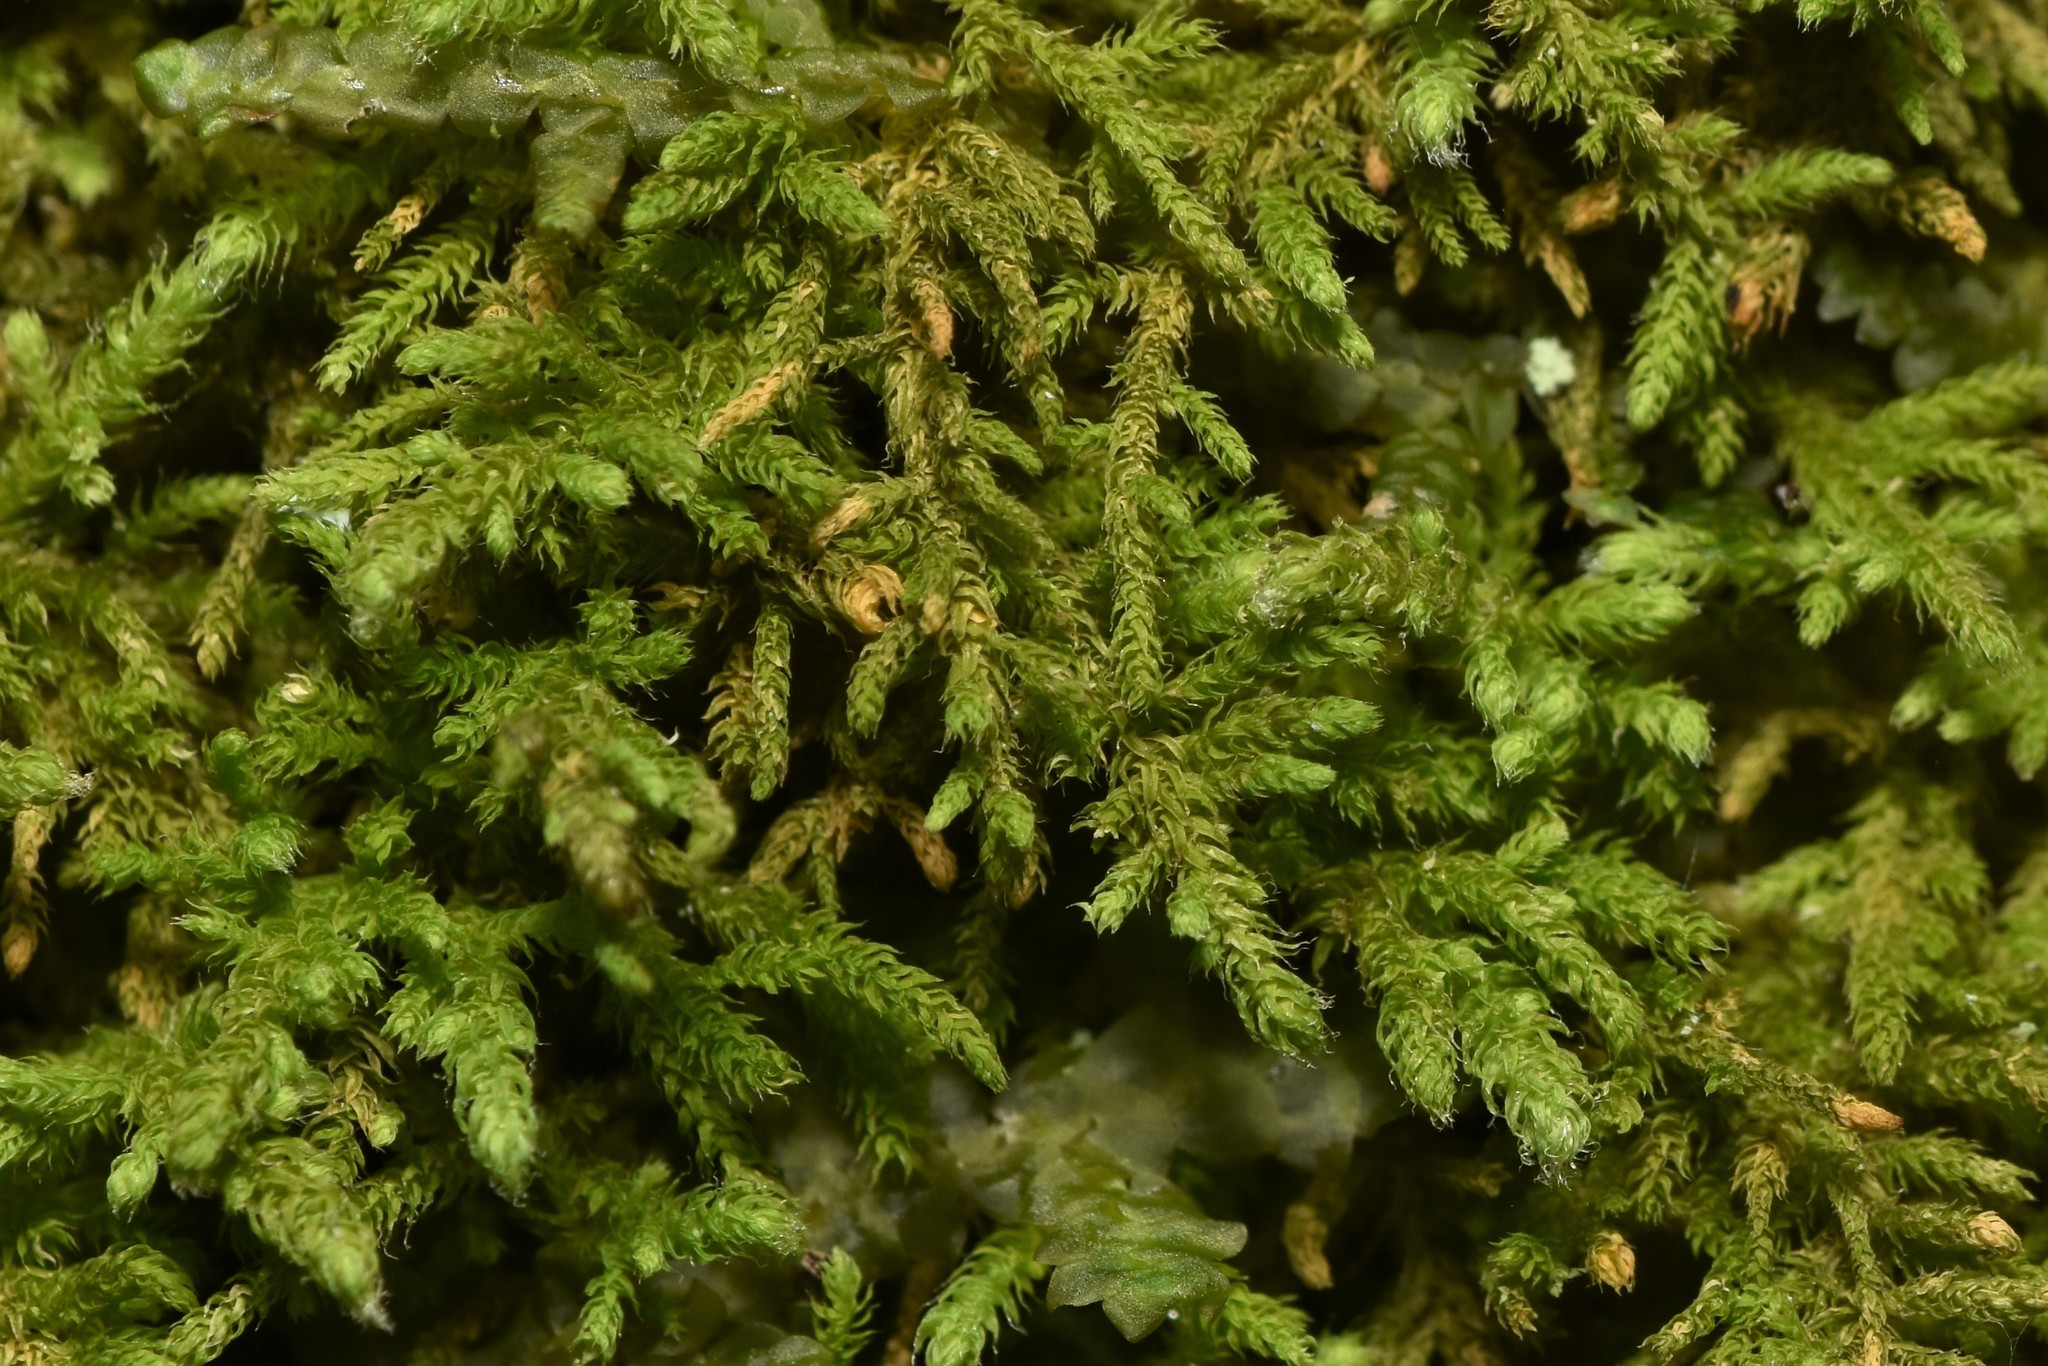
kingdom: Plantae
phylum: Bryophyta
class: Bryopsida
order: Hypnales
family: Lembophyllaceae
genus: Heterocladium
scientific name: Heterocladium macounii
